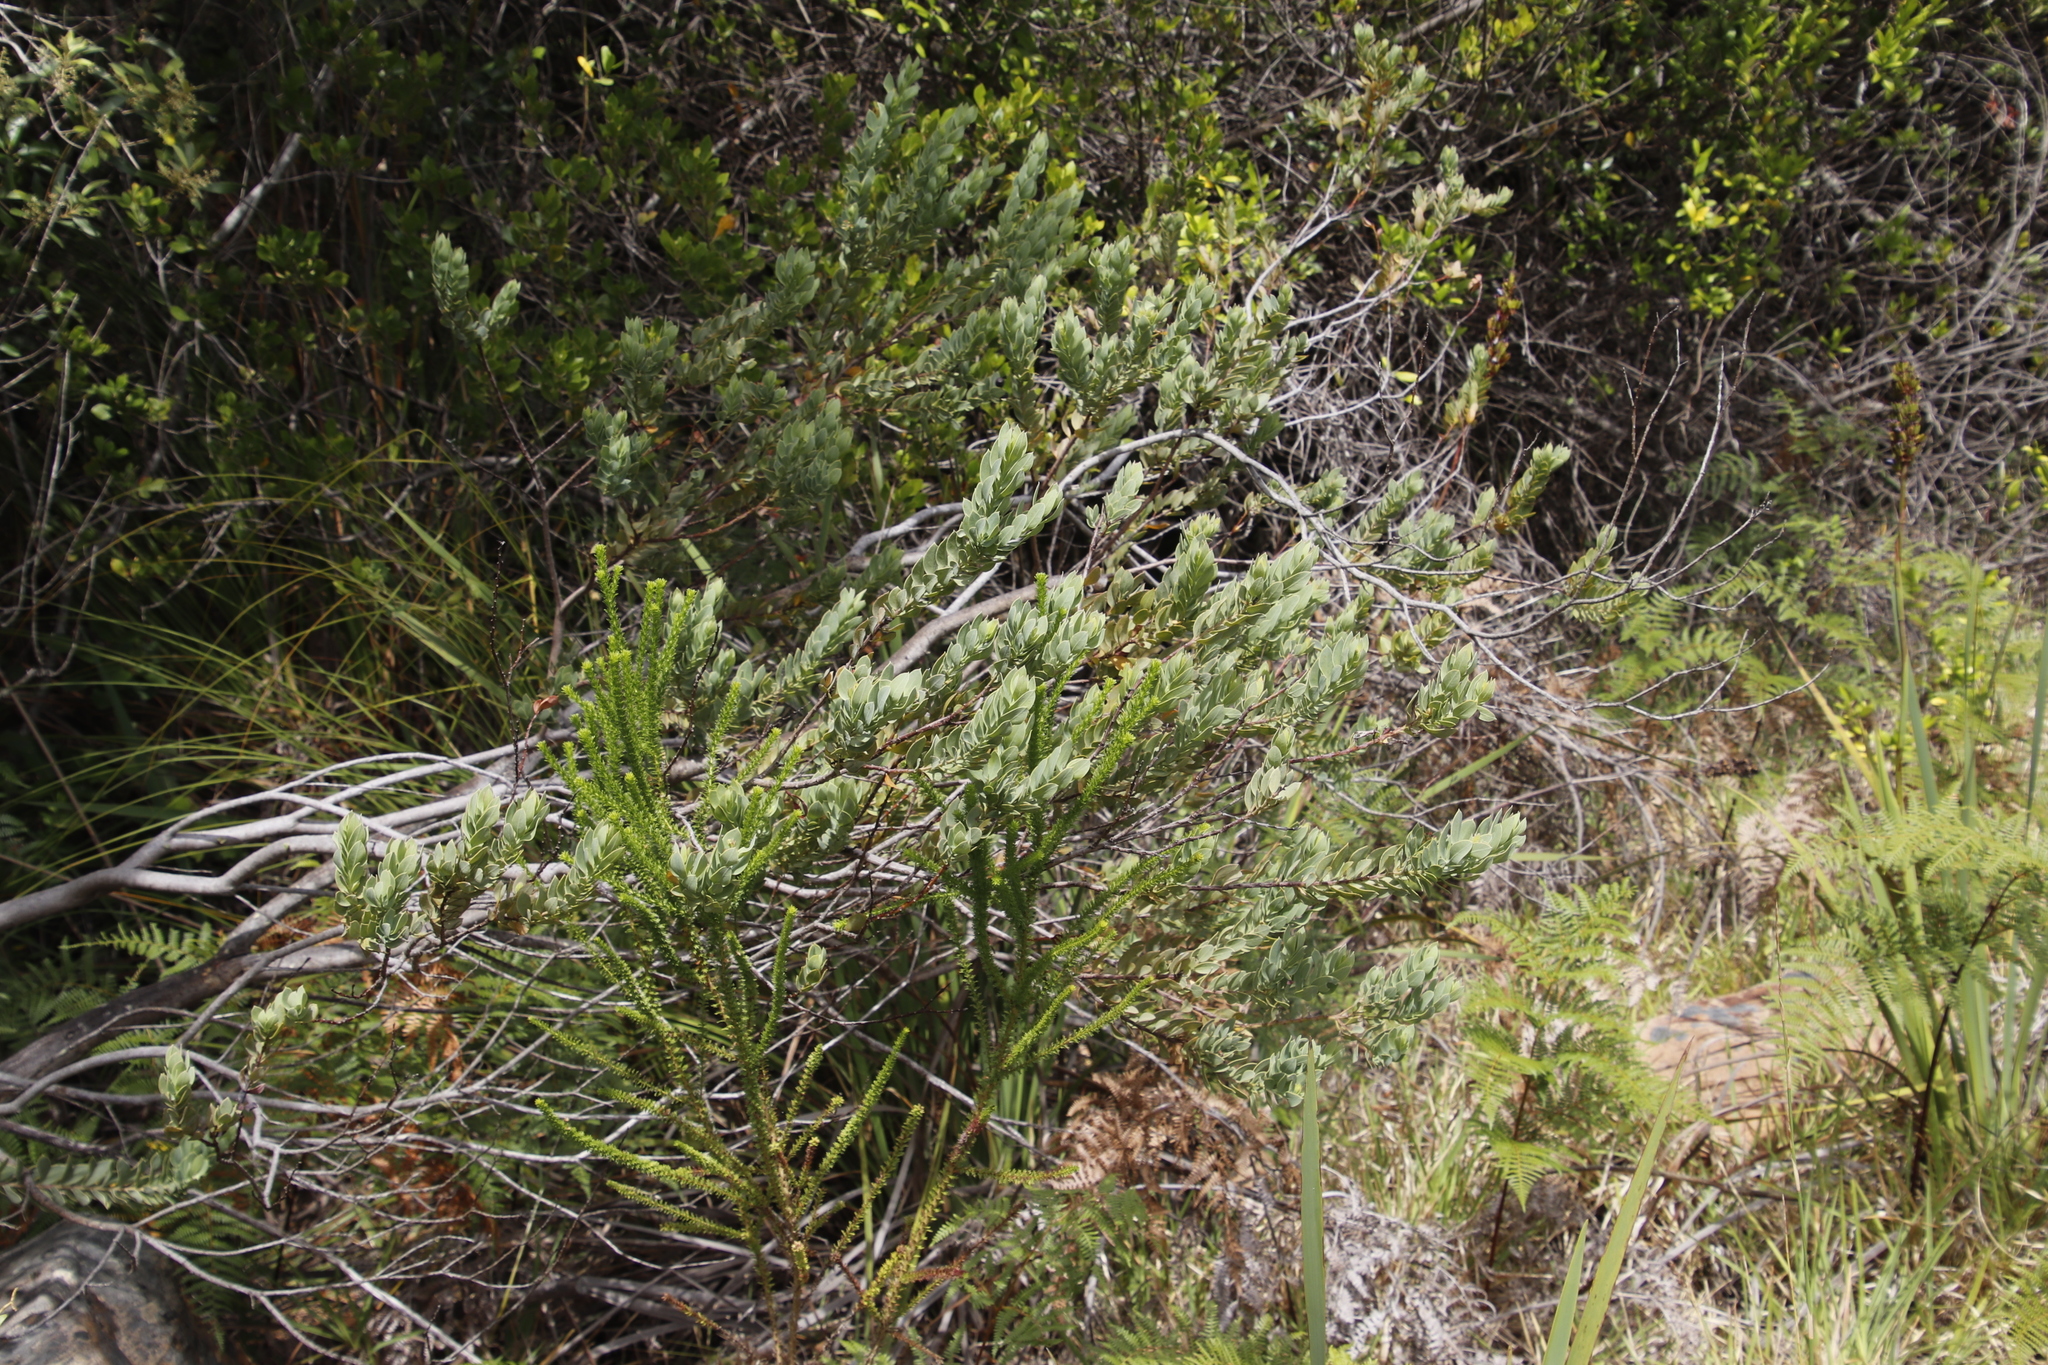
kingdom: Plantae
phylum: Tracheophyta
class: Magnoliopsida
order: Santalales
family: Santalaceae
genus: Osyris
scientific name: Osyris compressa
